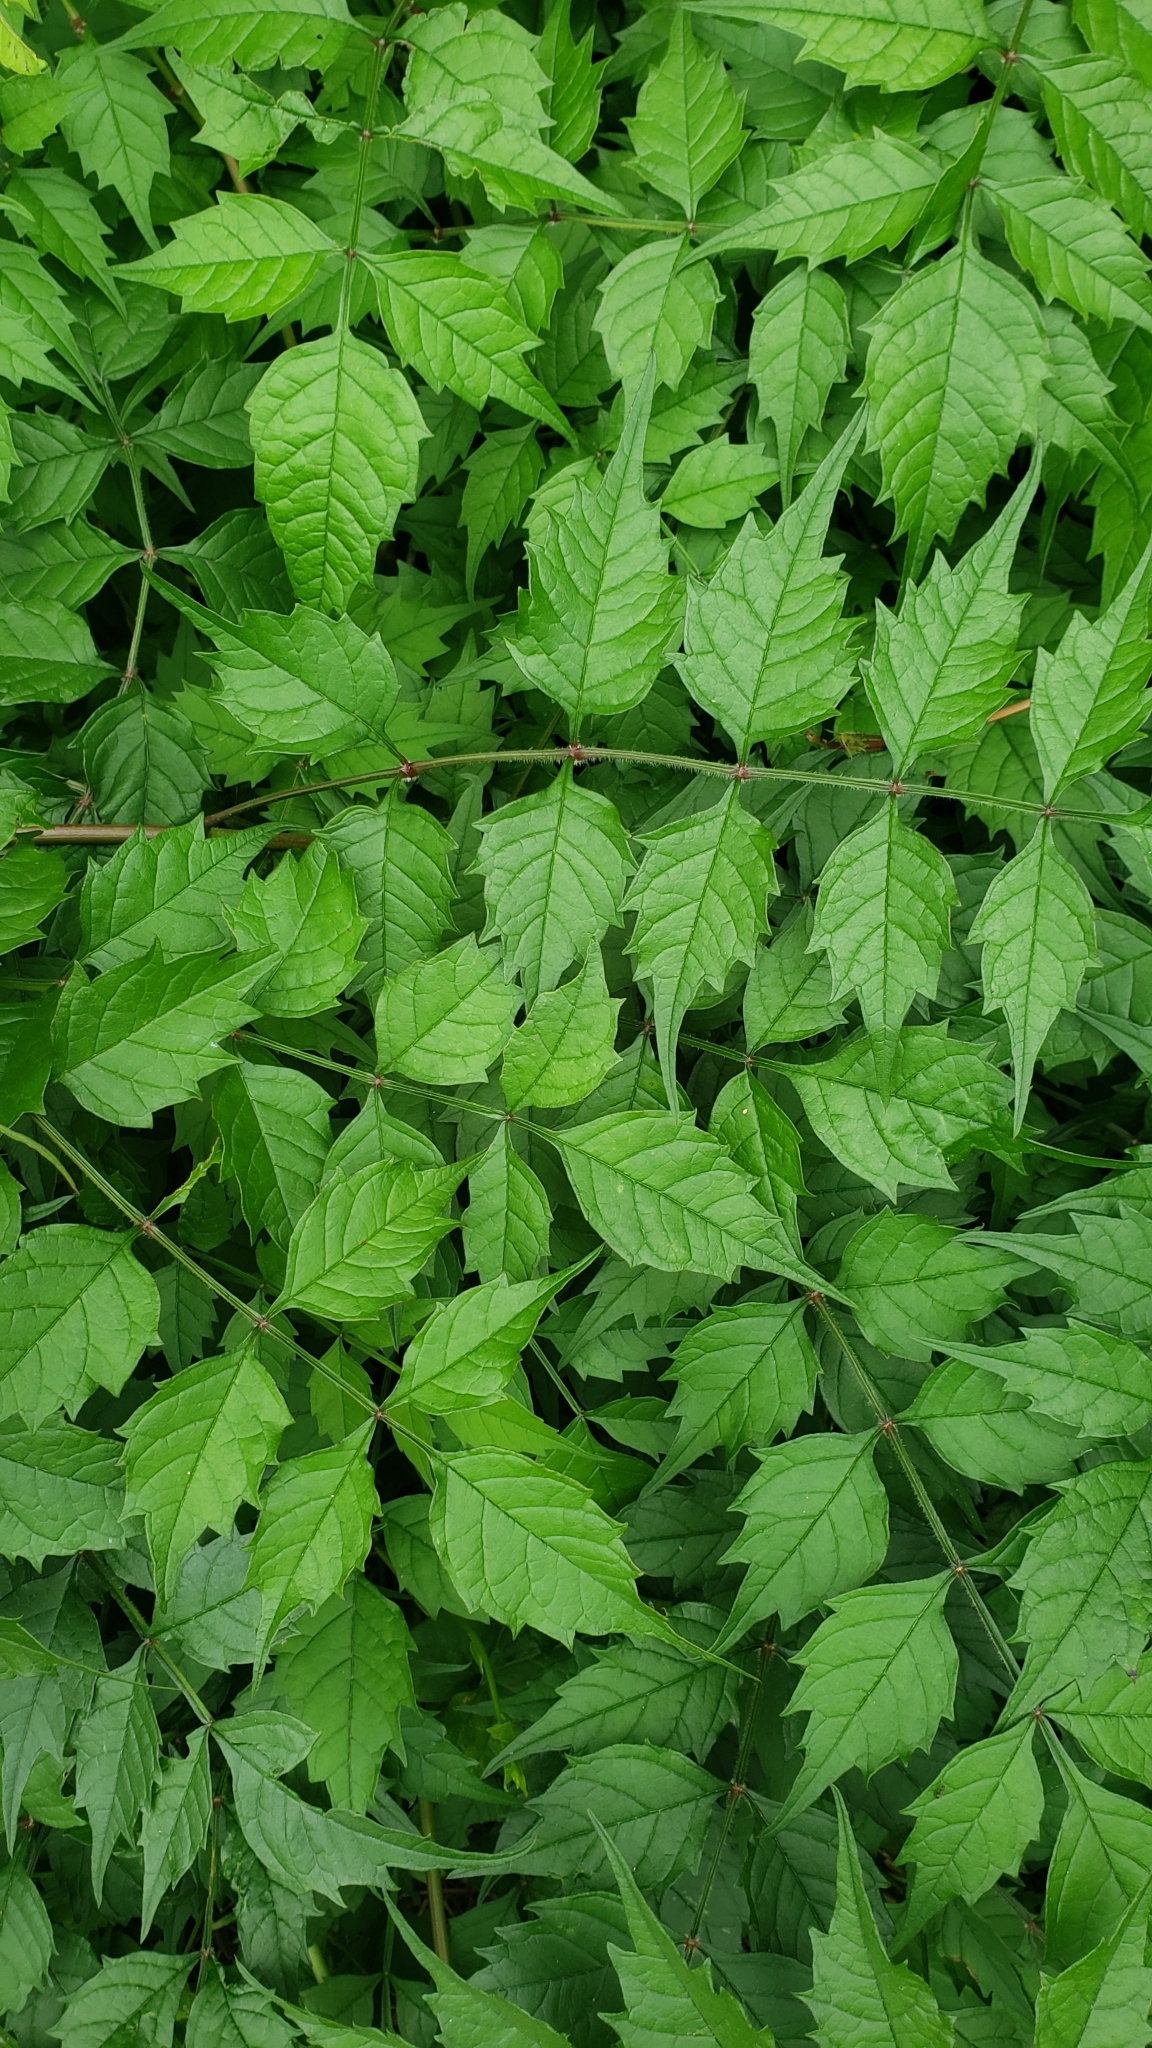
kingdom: Plantae
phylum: Tracheophyta
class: Magnoliopsida
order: Lamiales
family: Bignoniaceae
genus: Campsis
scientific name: Campsis radicans
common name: Trumpet-creeper
